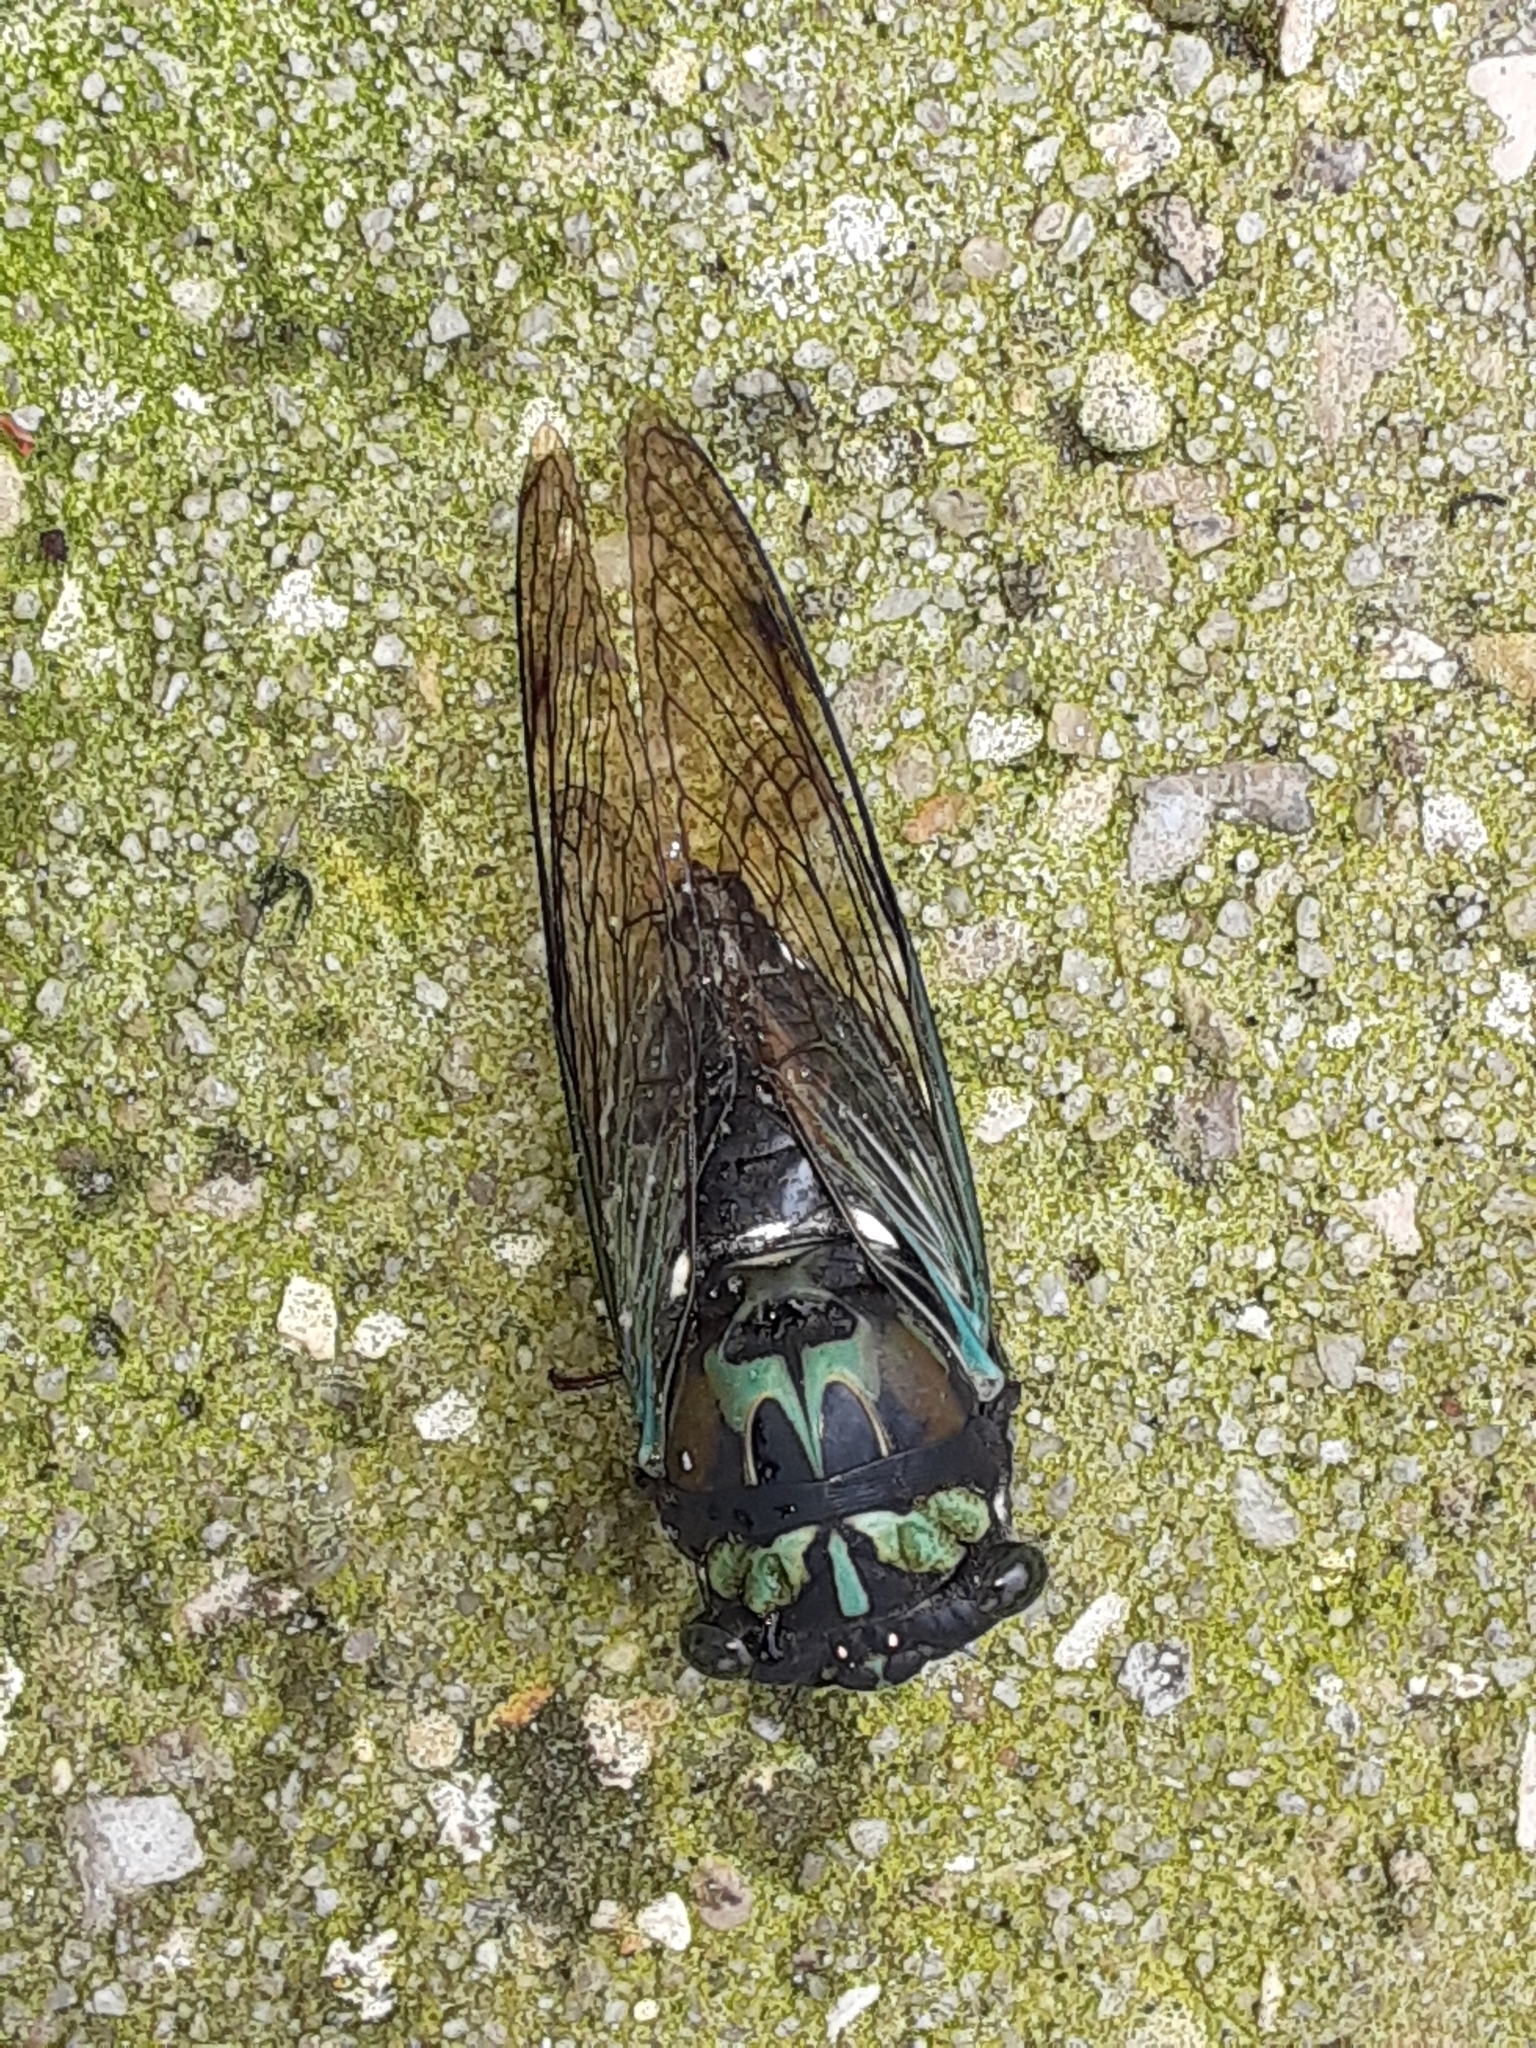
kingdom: Animalia
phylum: Arthropoda
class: Insecta
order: Hemiptera
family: Cicadidae
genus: Neotibicen
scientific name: Neotibicen lyricen
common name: Lyric cicada
